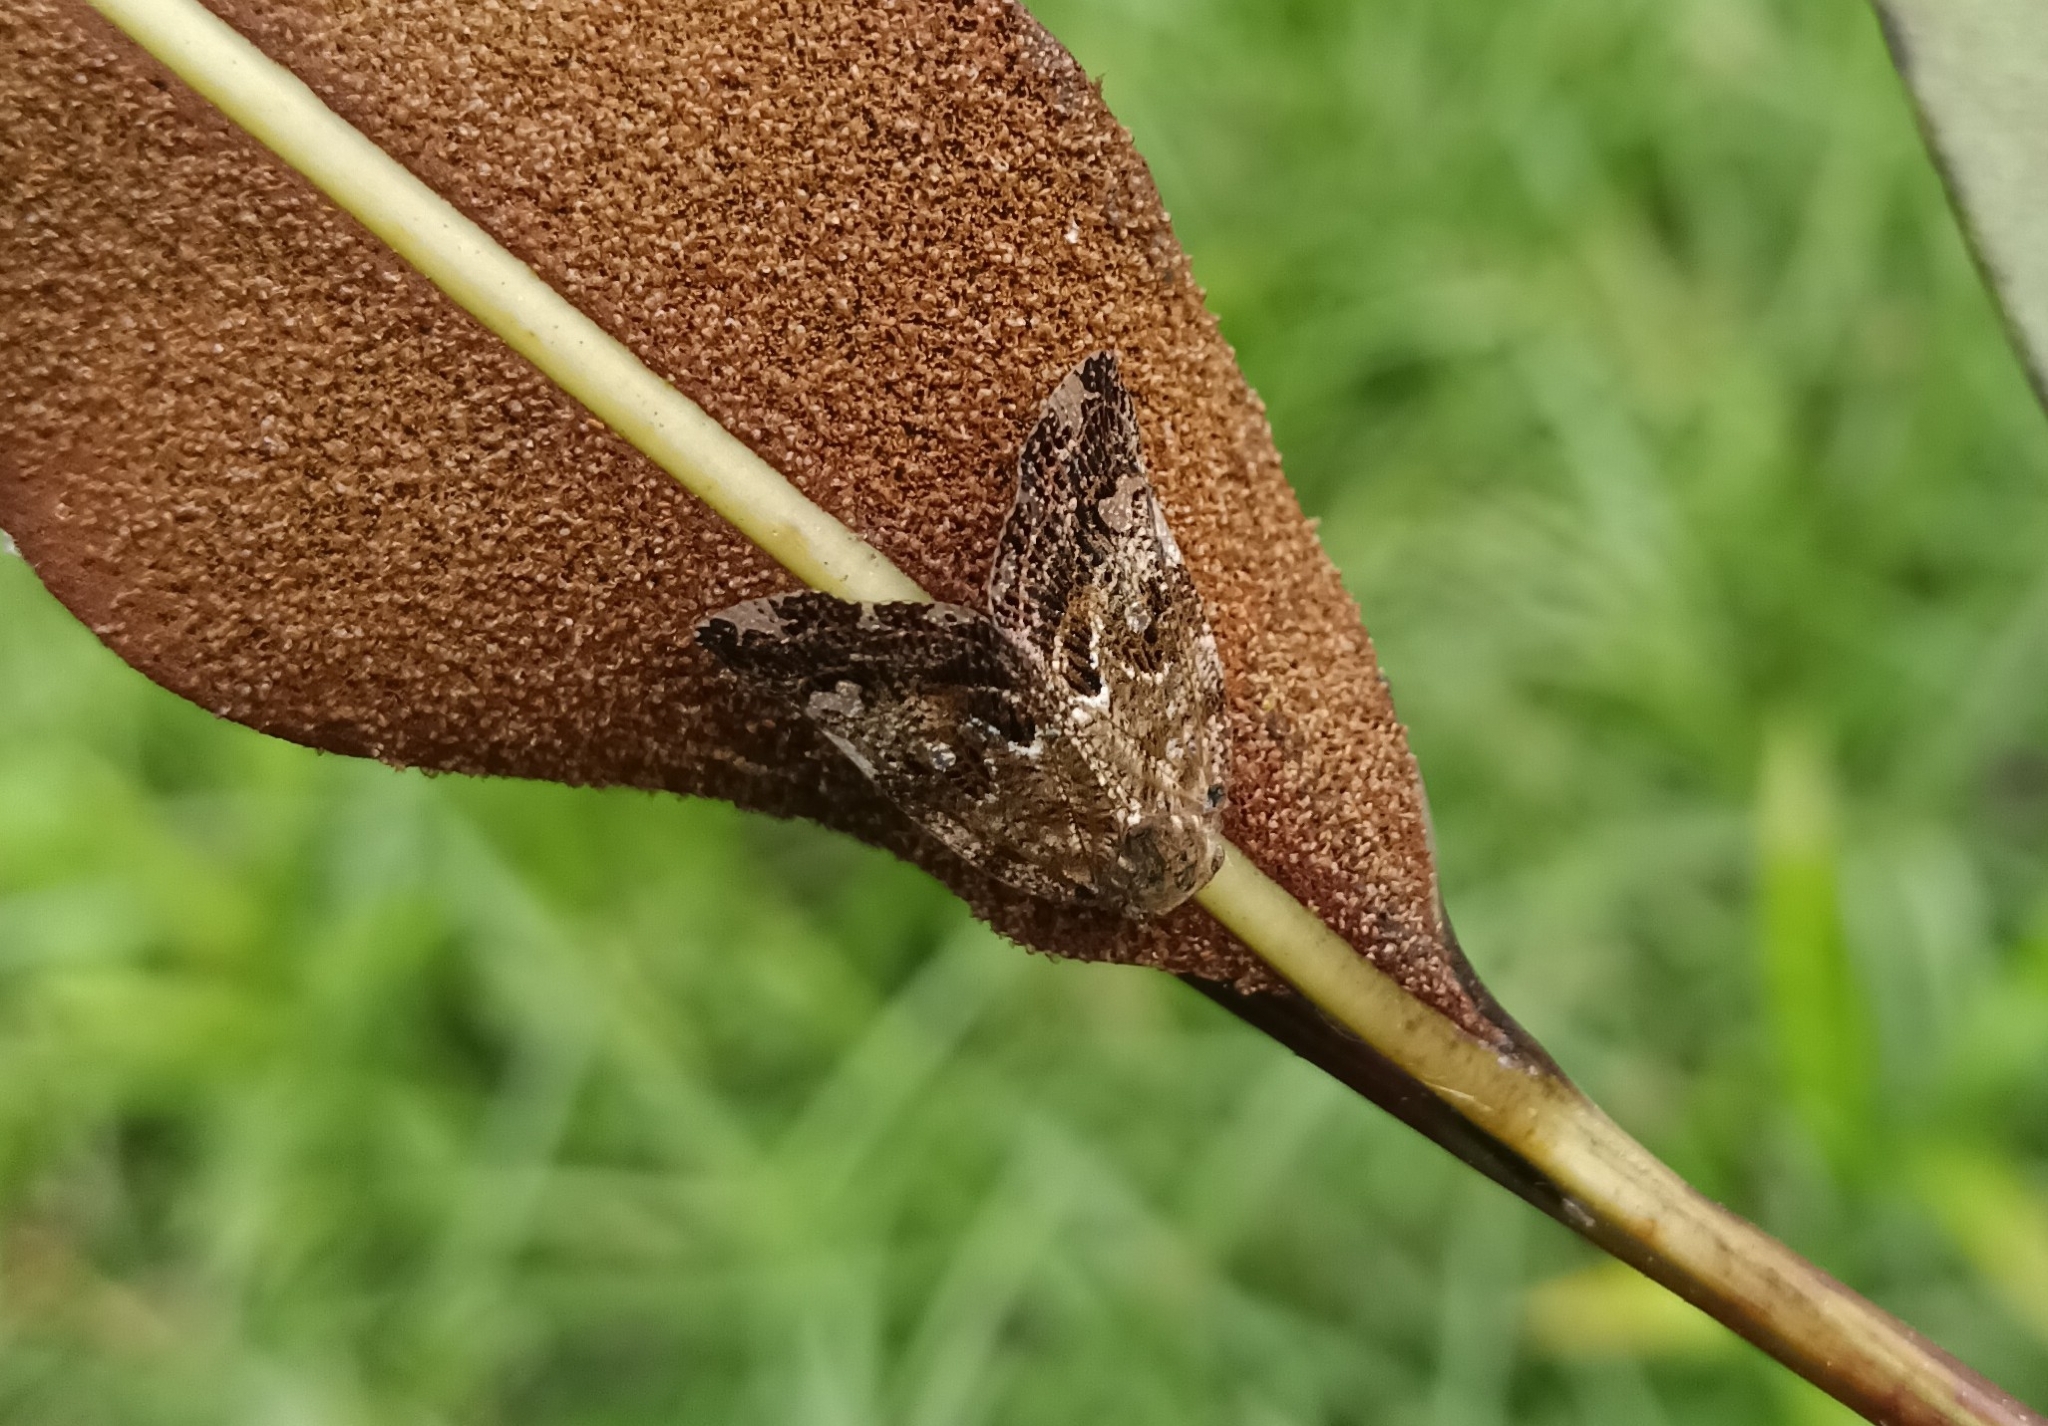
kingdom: Animalia
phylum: Arthropoda
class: Insecta
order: Hemiptera
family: Ricaniidae
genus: Ricania
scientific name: Ricania speculum
